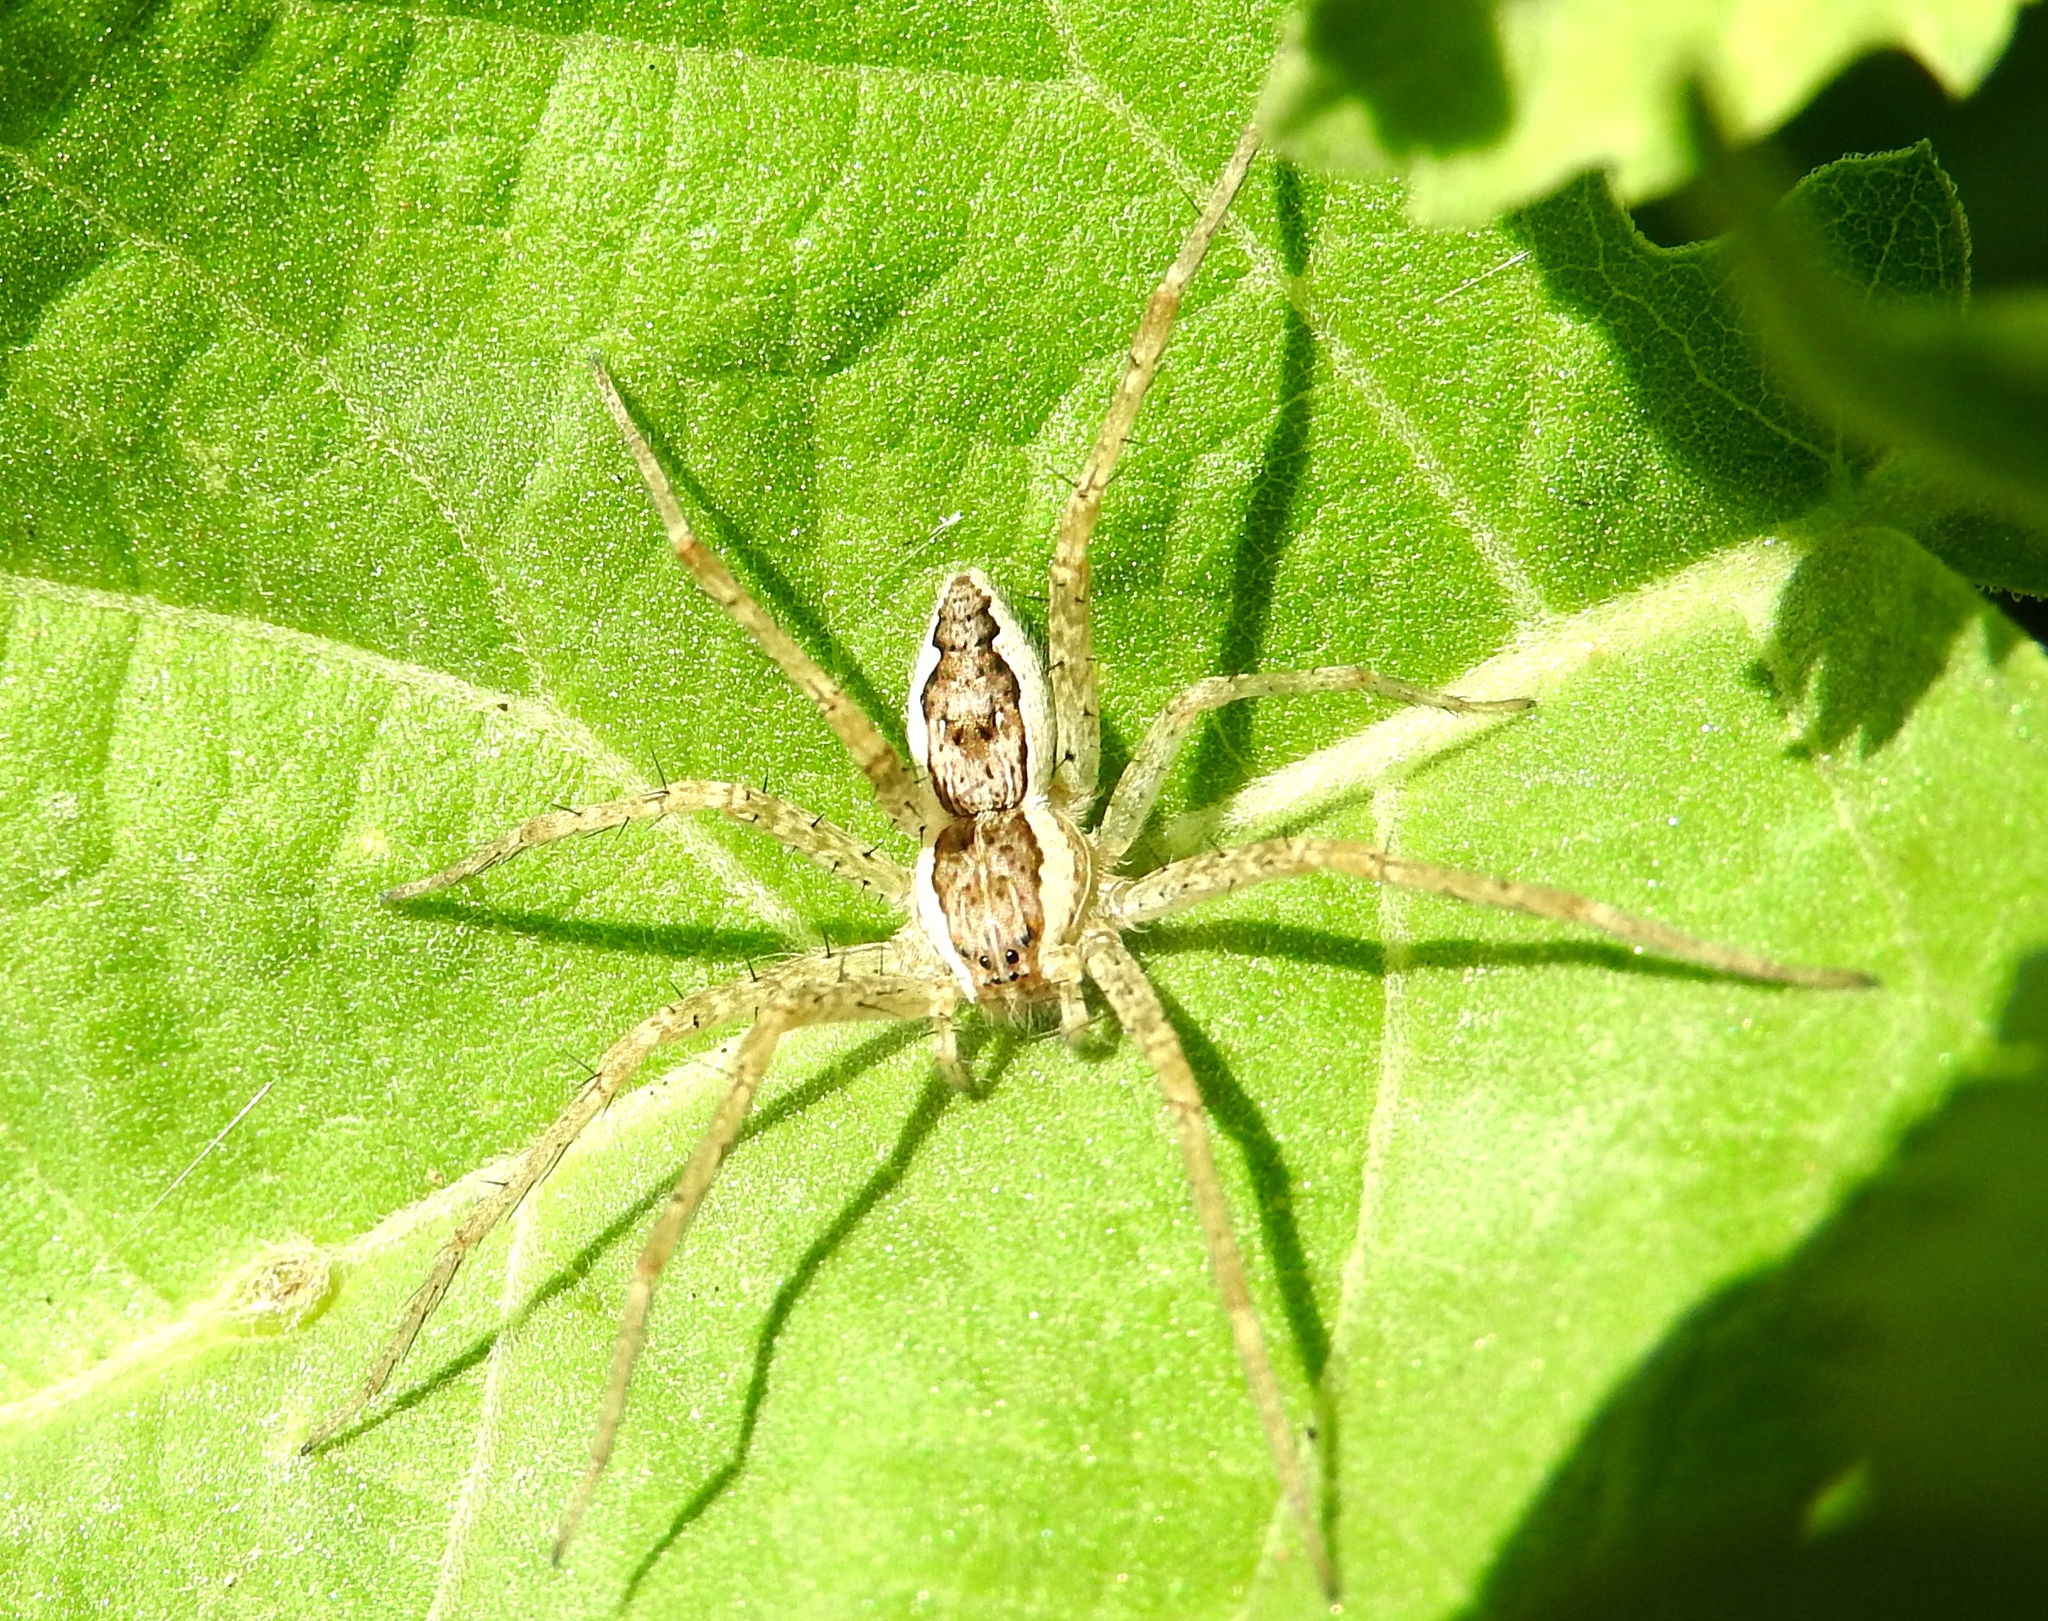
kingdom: Animalia
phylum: Arthropoda
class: Arachnida
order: Araneae
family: Pisauridae
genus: Tinus
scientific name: Tinus
